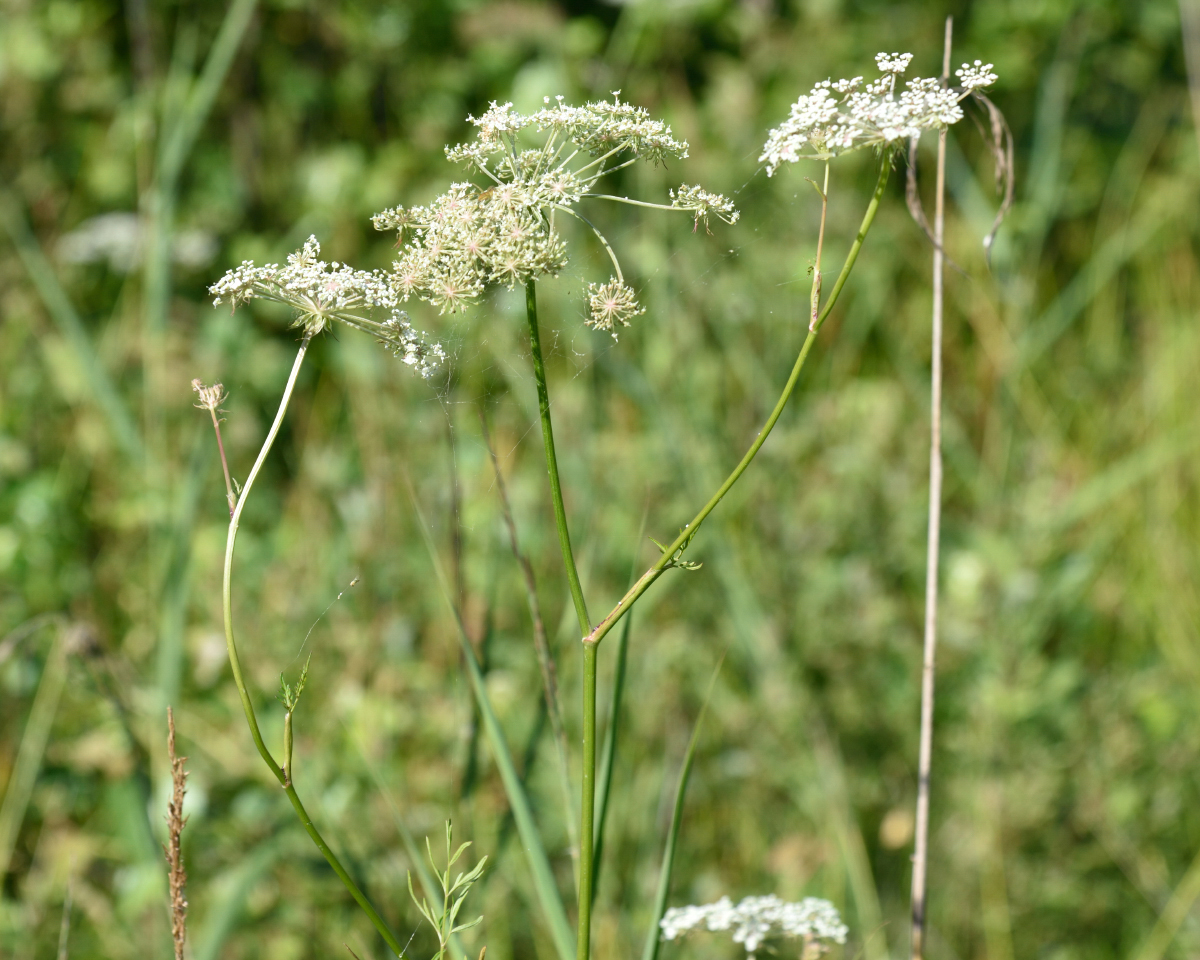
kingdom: Plantae
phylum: Tracheophyta
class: Magnoliopsida
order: Apiales
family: Apiaceae
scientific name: Apiaceae
